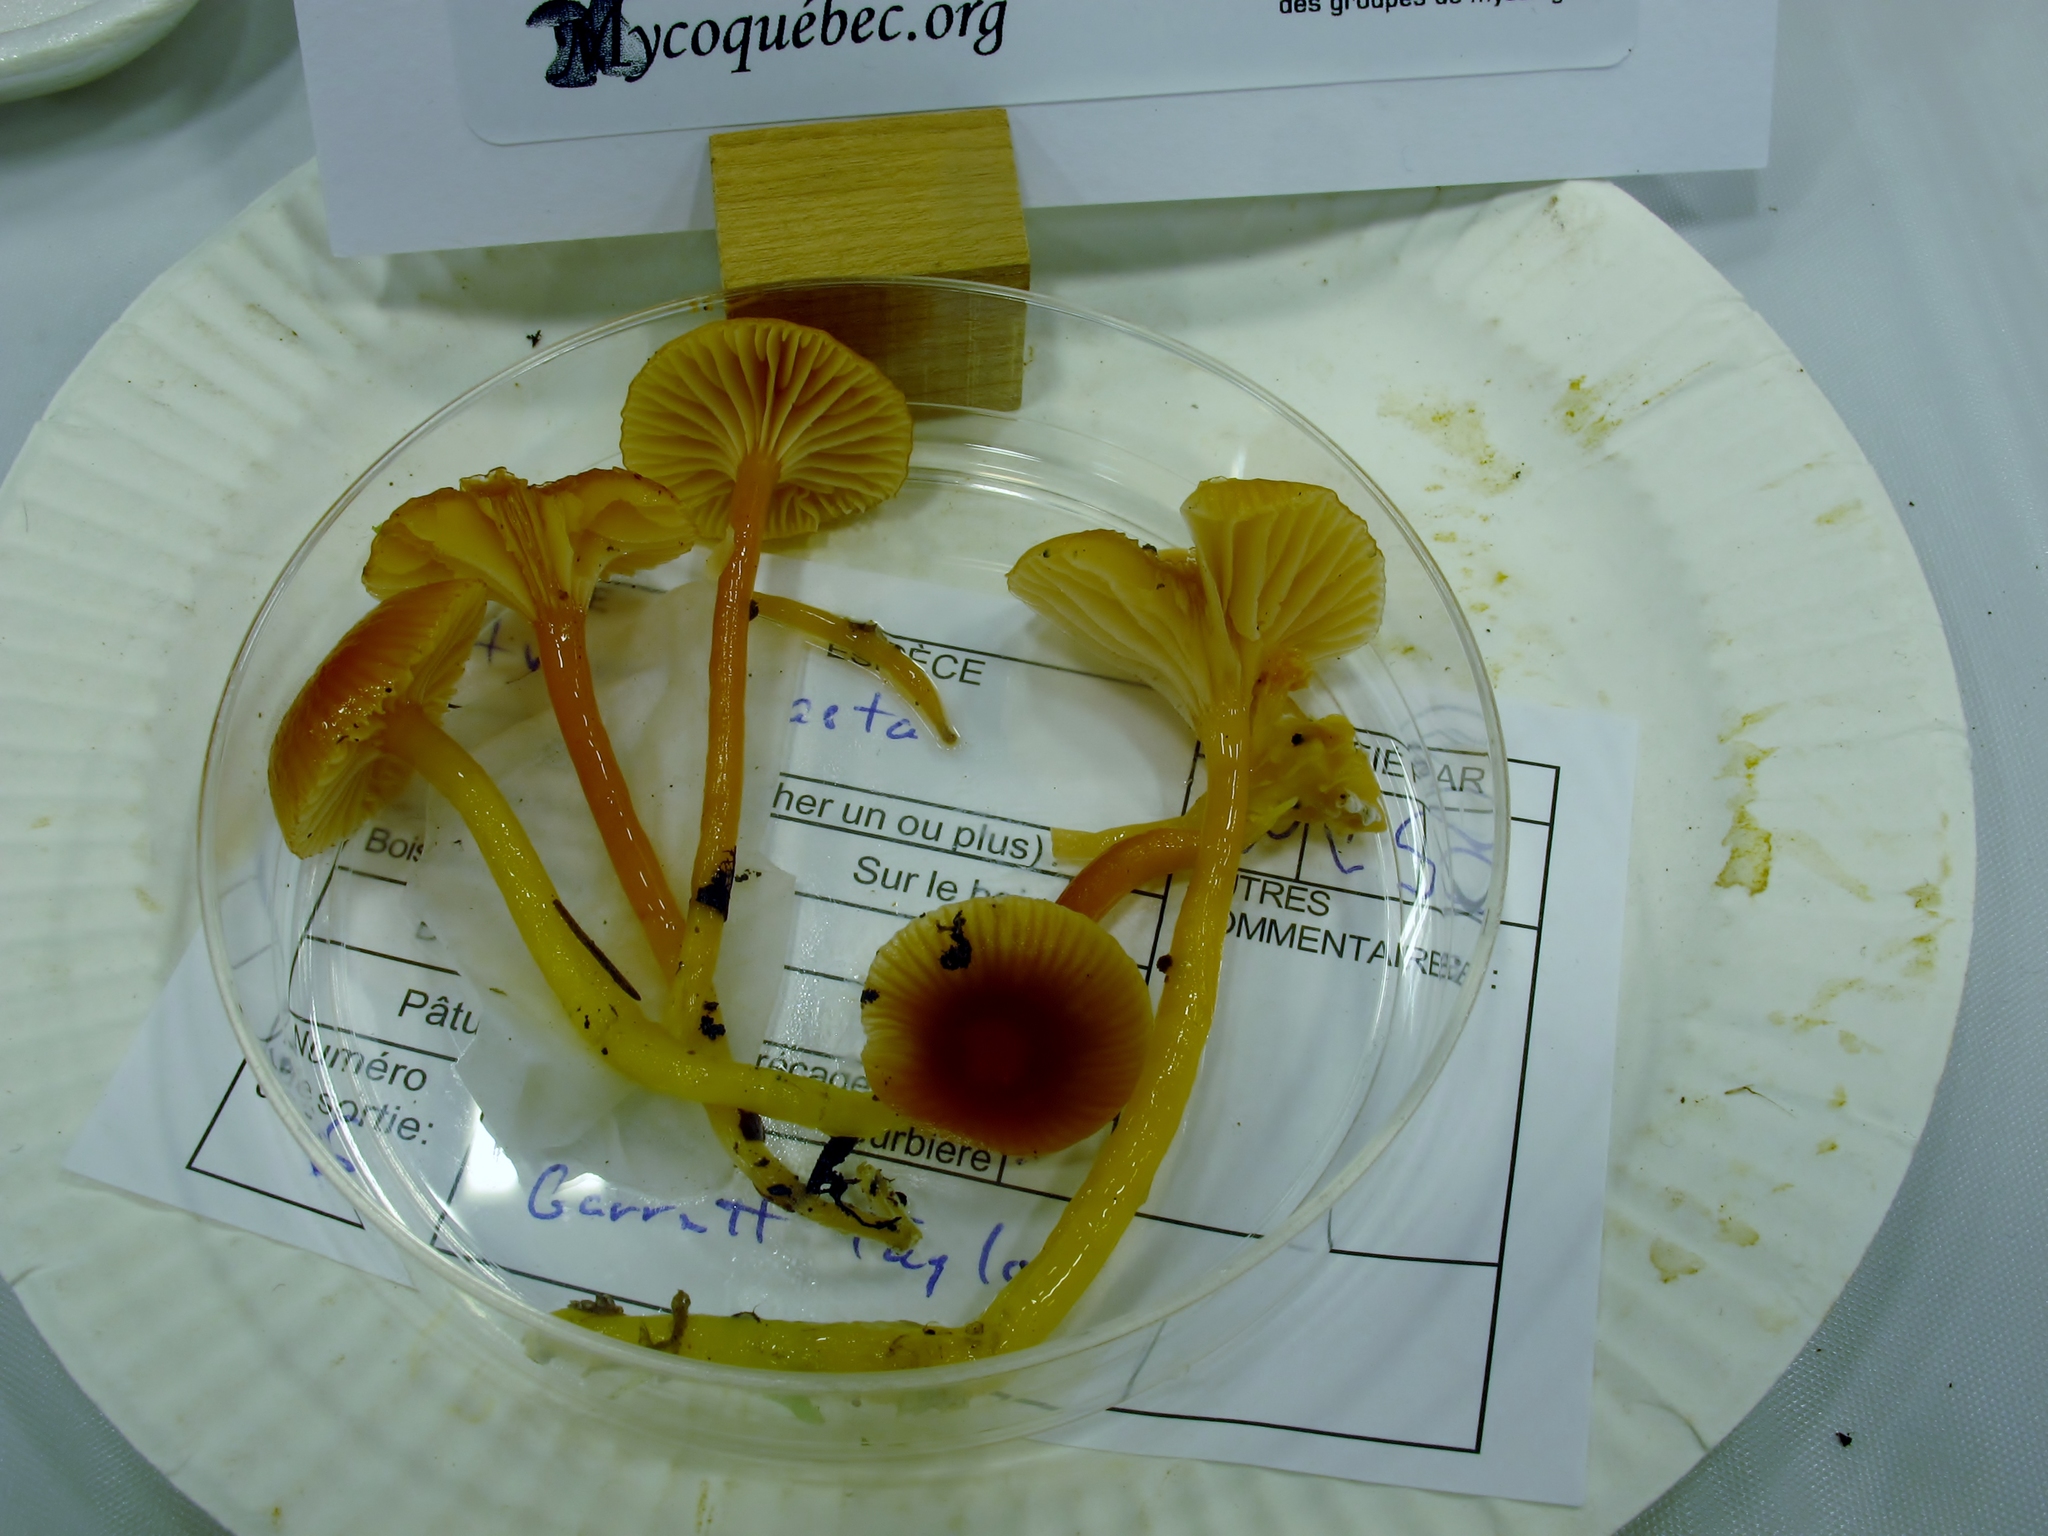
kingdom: Fungi
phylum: Basidiomycota
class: Agaricomycetes
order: Agaricales
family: Hygrophoraceae
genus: Gliophorus
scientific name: Gliophorus laetus
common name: Heath waxcap
